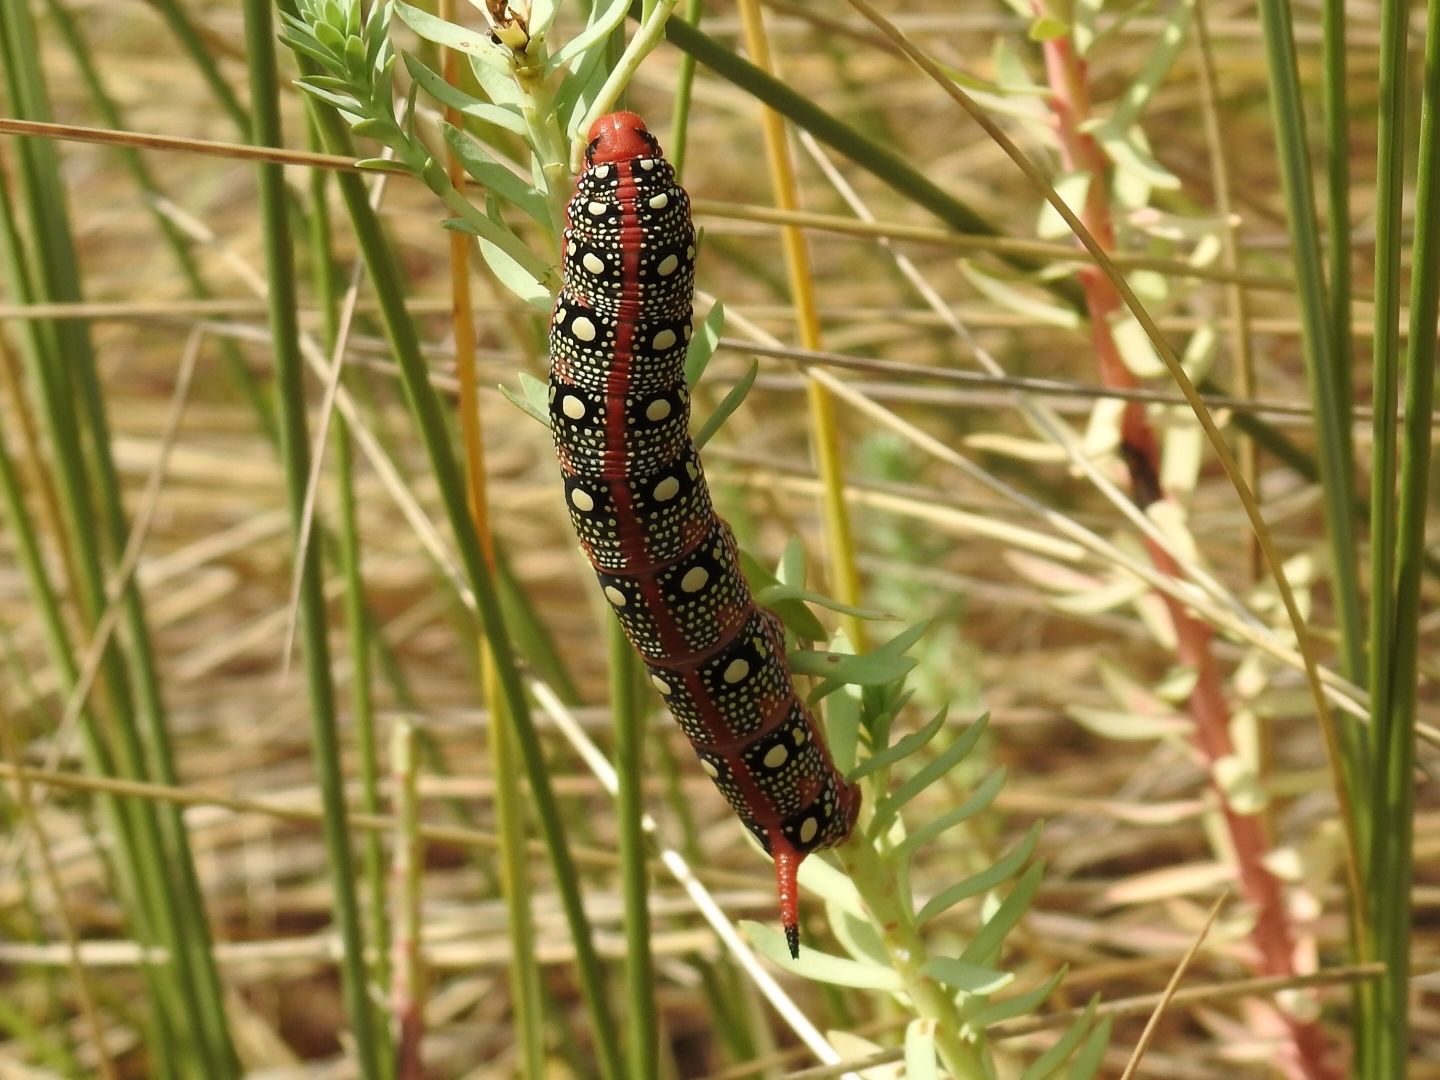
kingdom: Animalia
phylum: Arthropoda
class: Insecta
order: Lepidoptera
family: Sphingidae
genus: Hyles
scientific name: Hyles euphorbiae
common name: Spurge hawk-moth
